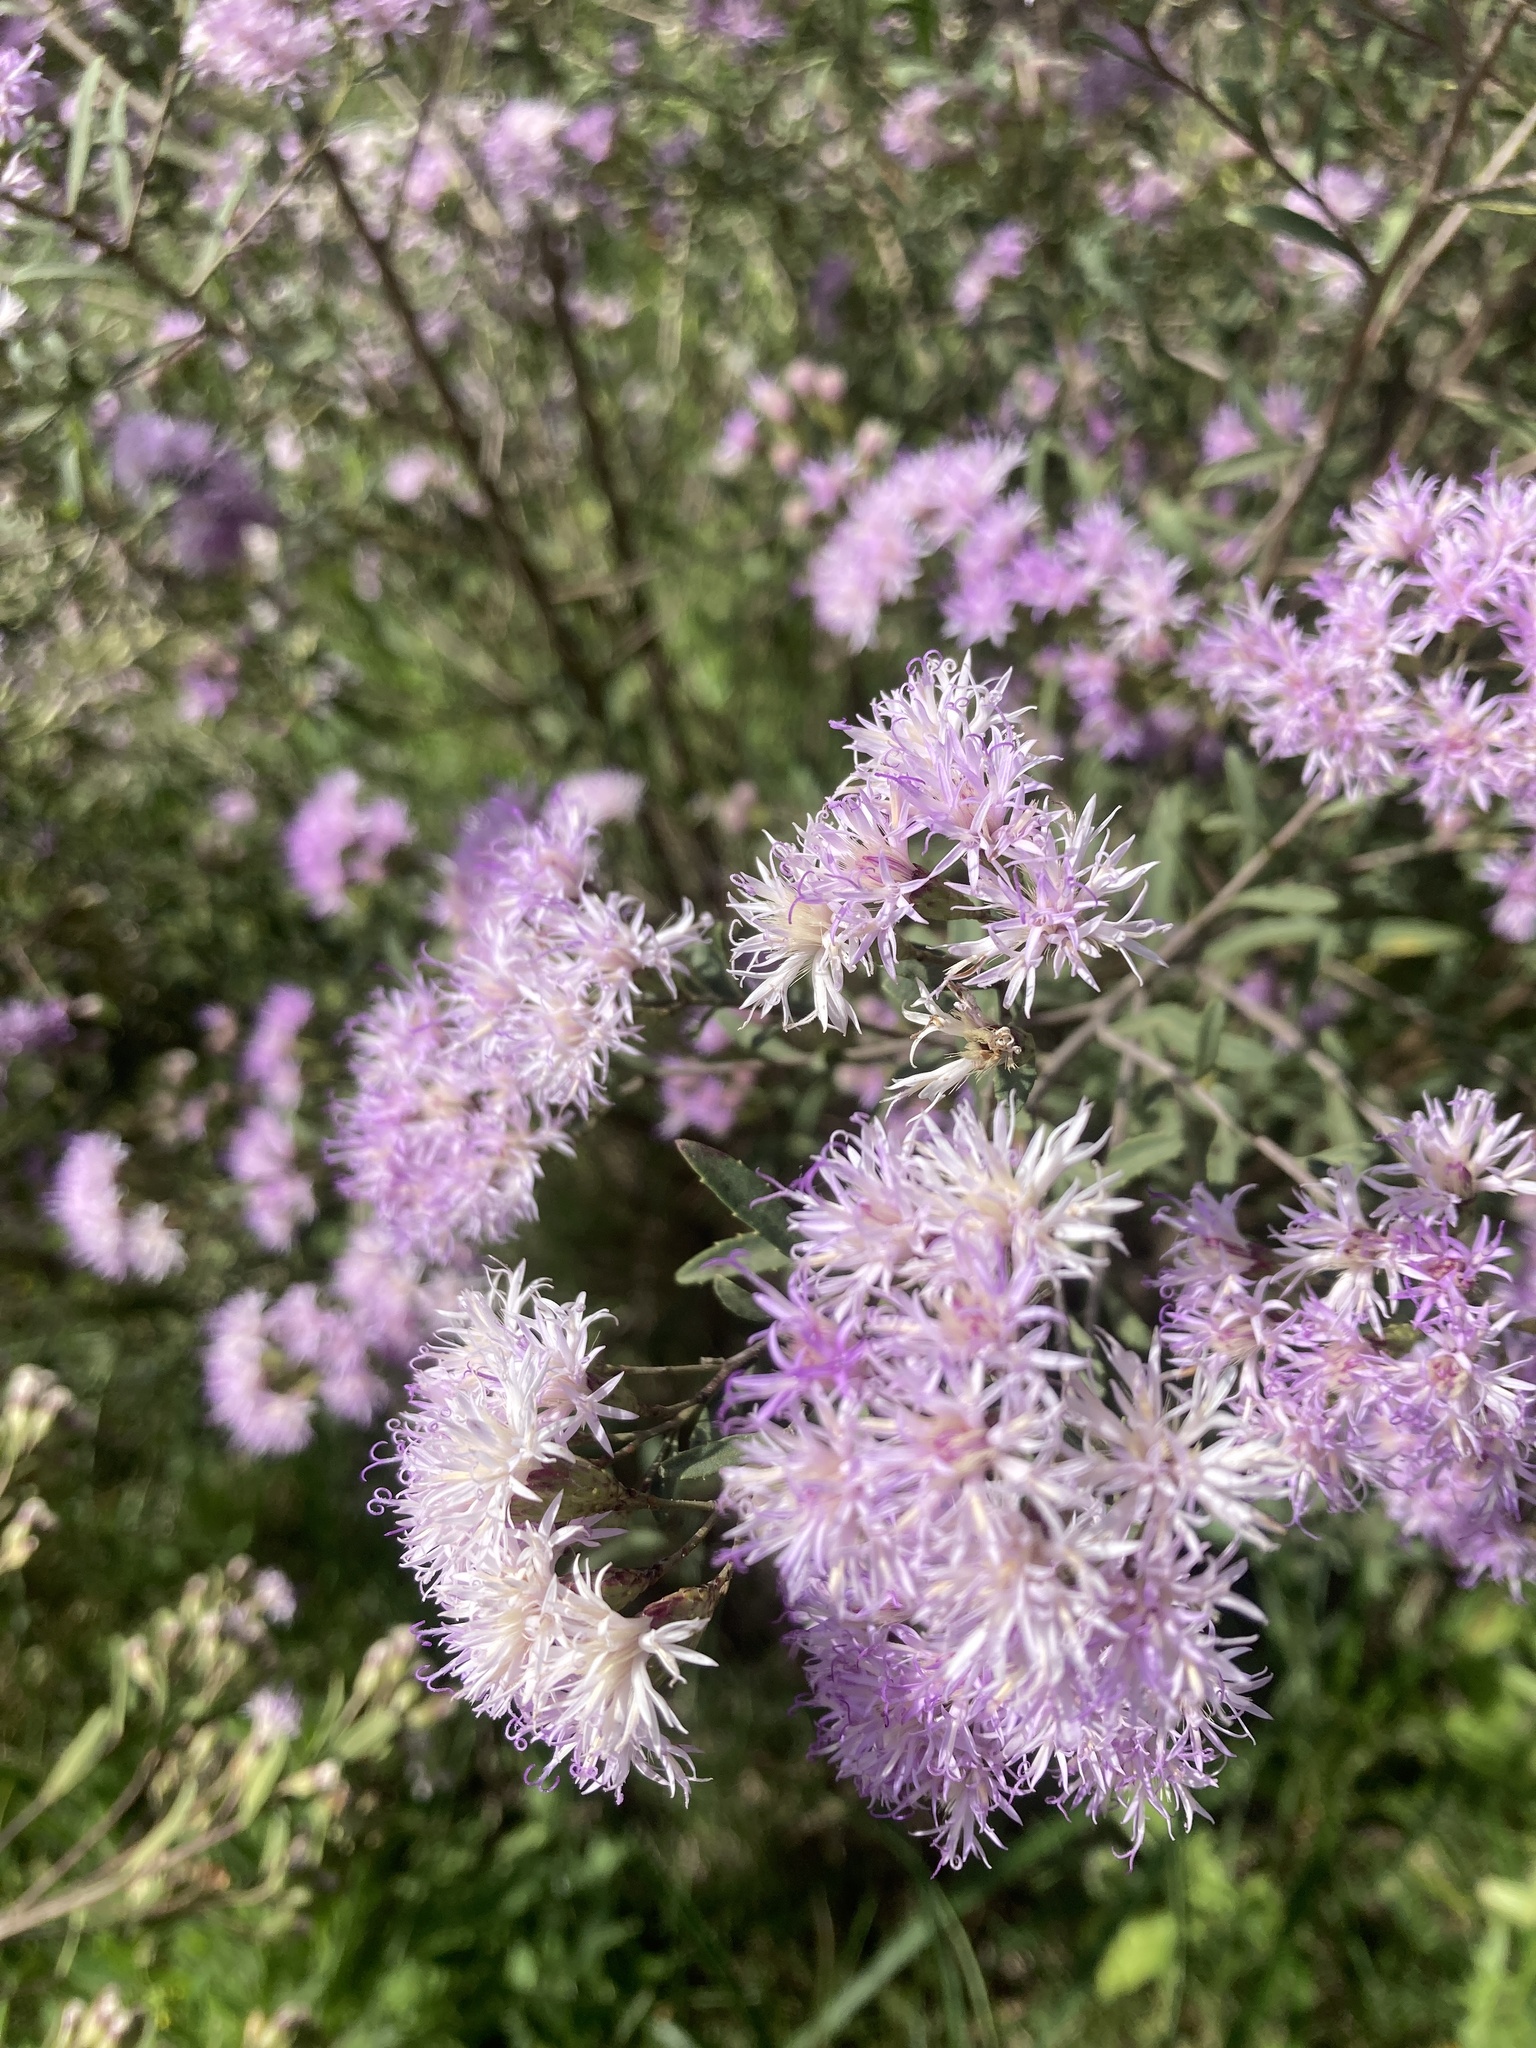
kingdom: Plantae
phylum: Tracheophyta
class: Magnoliopsida
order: Asterales
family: Asteraceae
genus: Vernonanthura
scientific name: Vernonanthura montevidensis
